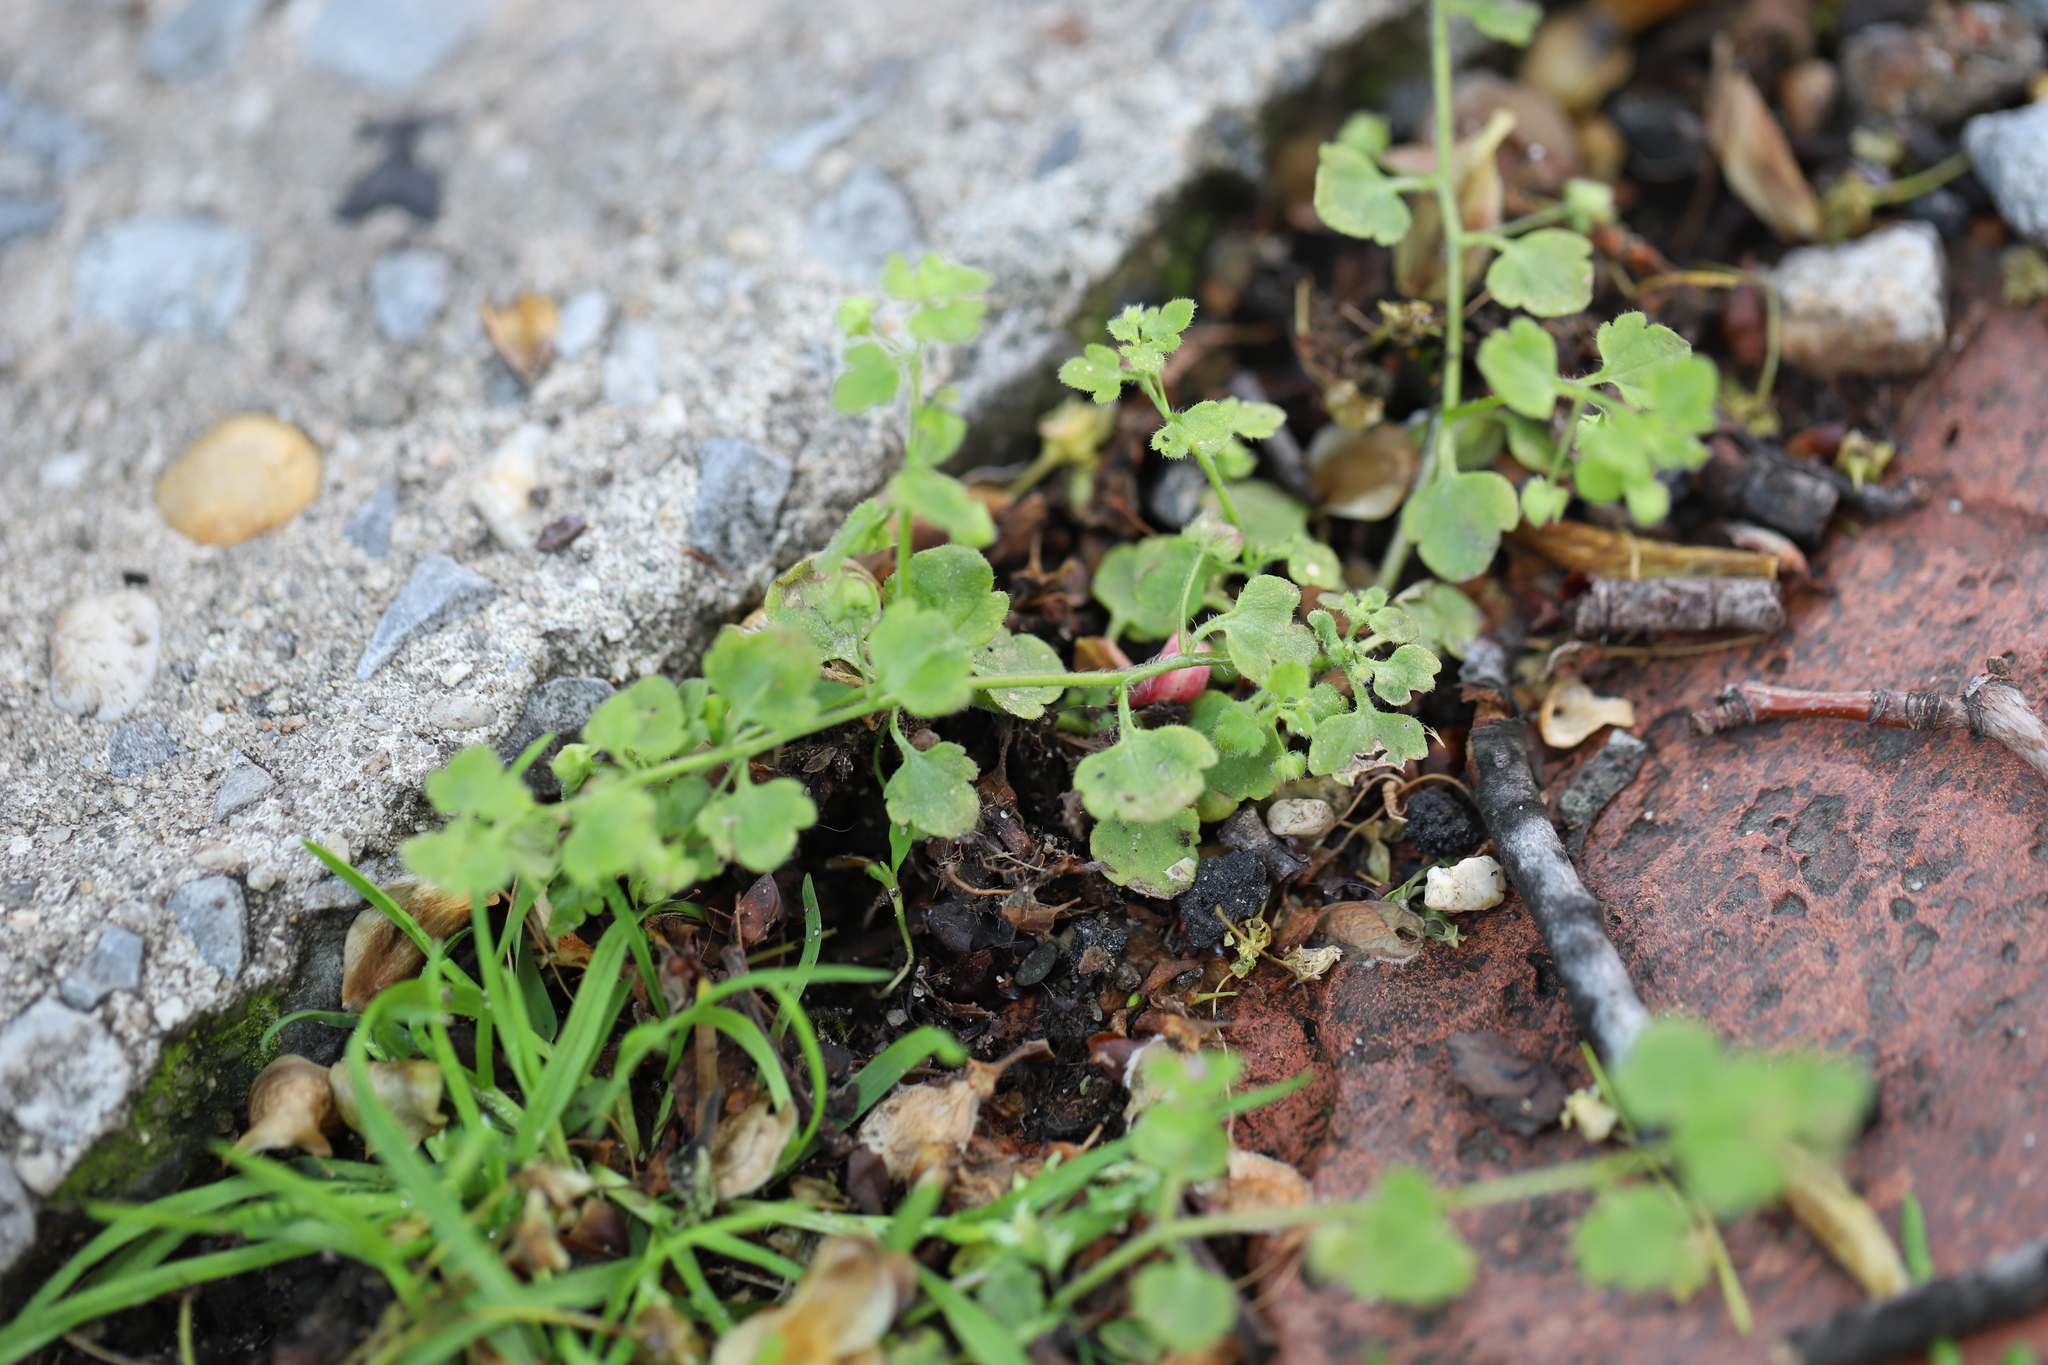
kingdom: Plantae
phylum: Tracheophyta
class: Magnoliopsida
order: Lamiales
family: Plantaginaceae
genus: Veronica
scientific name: Veronica hederifolia
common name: Ivy-leaved speedwell
